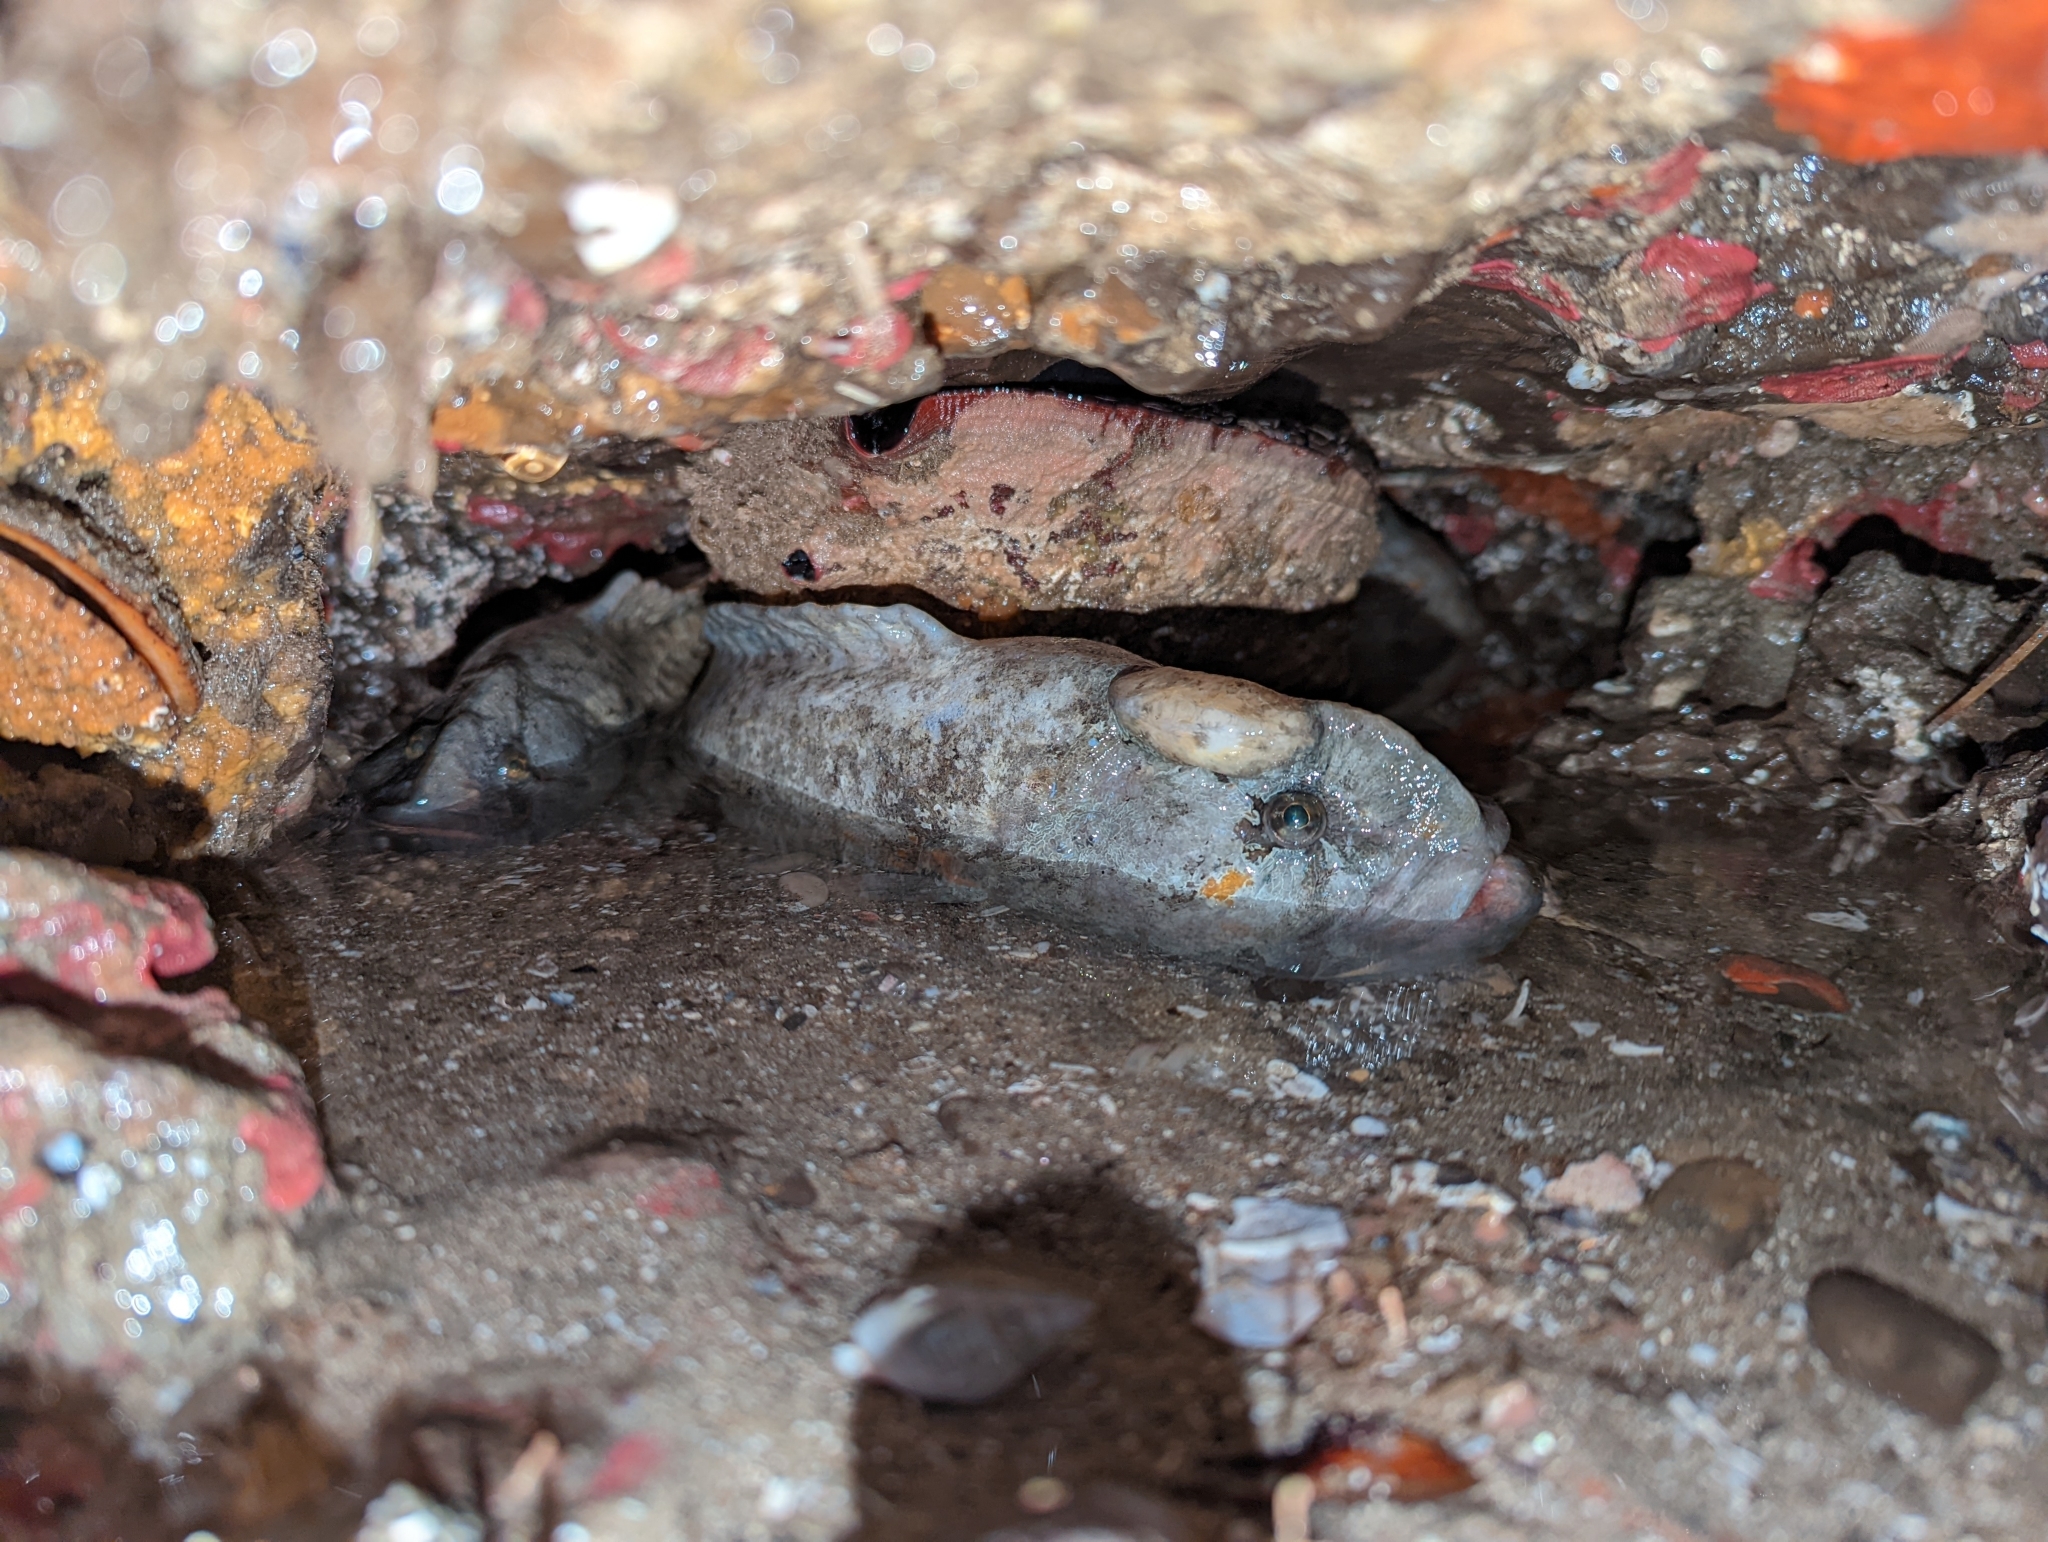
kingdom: Animalia
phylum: Chordata
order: Perciformes
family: Stichaeidae
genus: Cebidichthys
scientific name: Cebidichthys violaceus
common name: Monkeyface prickleback
